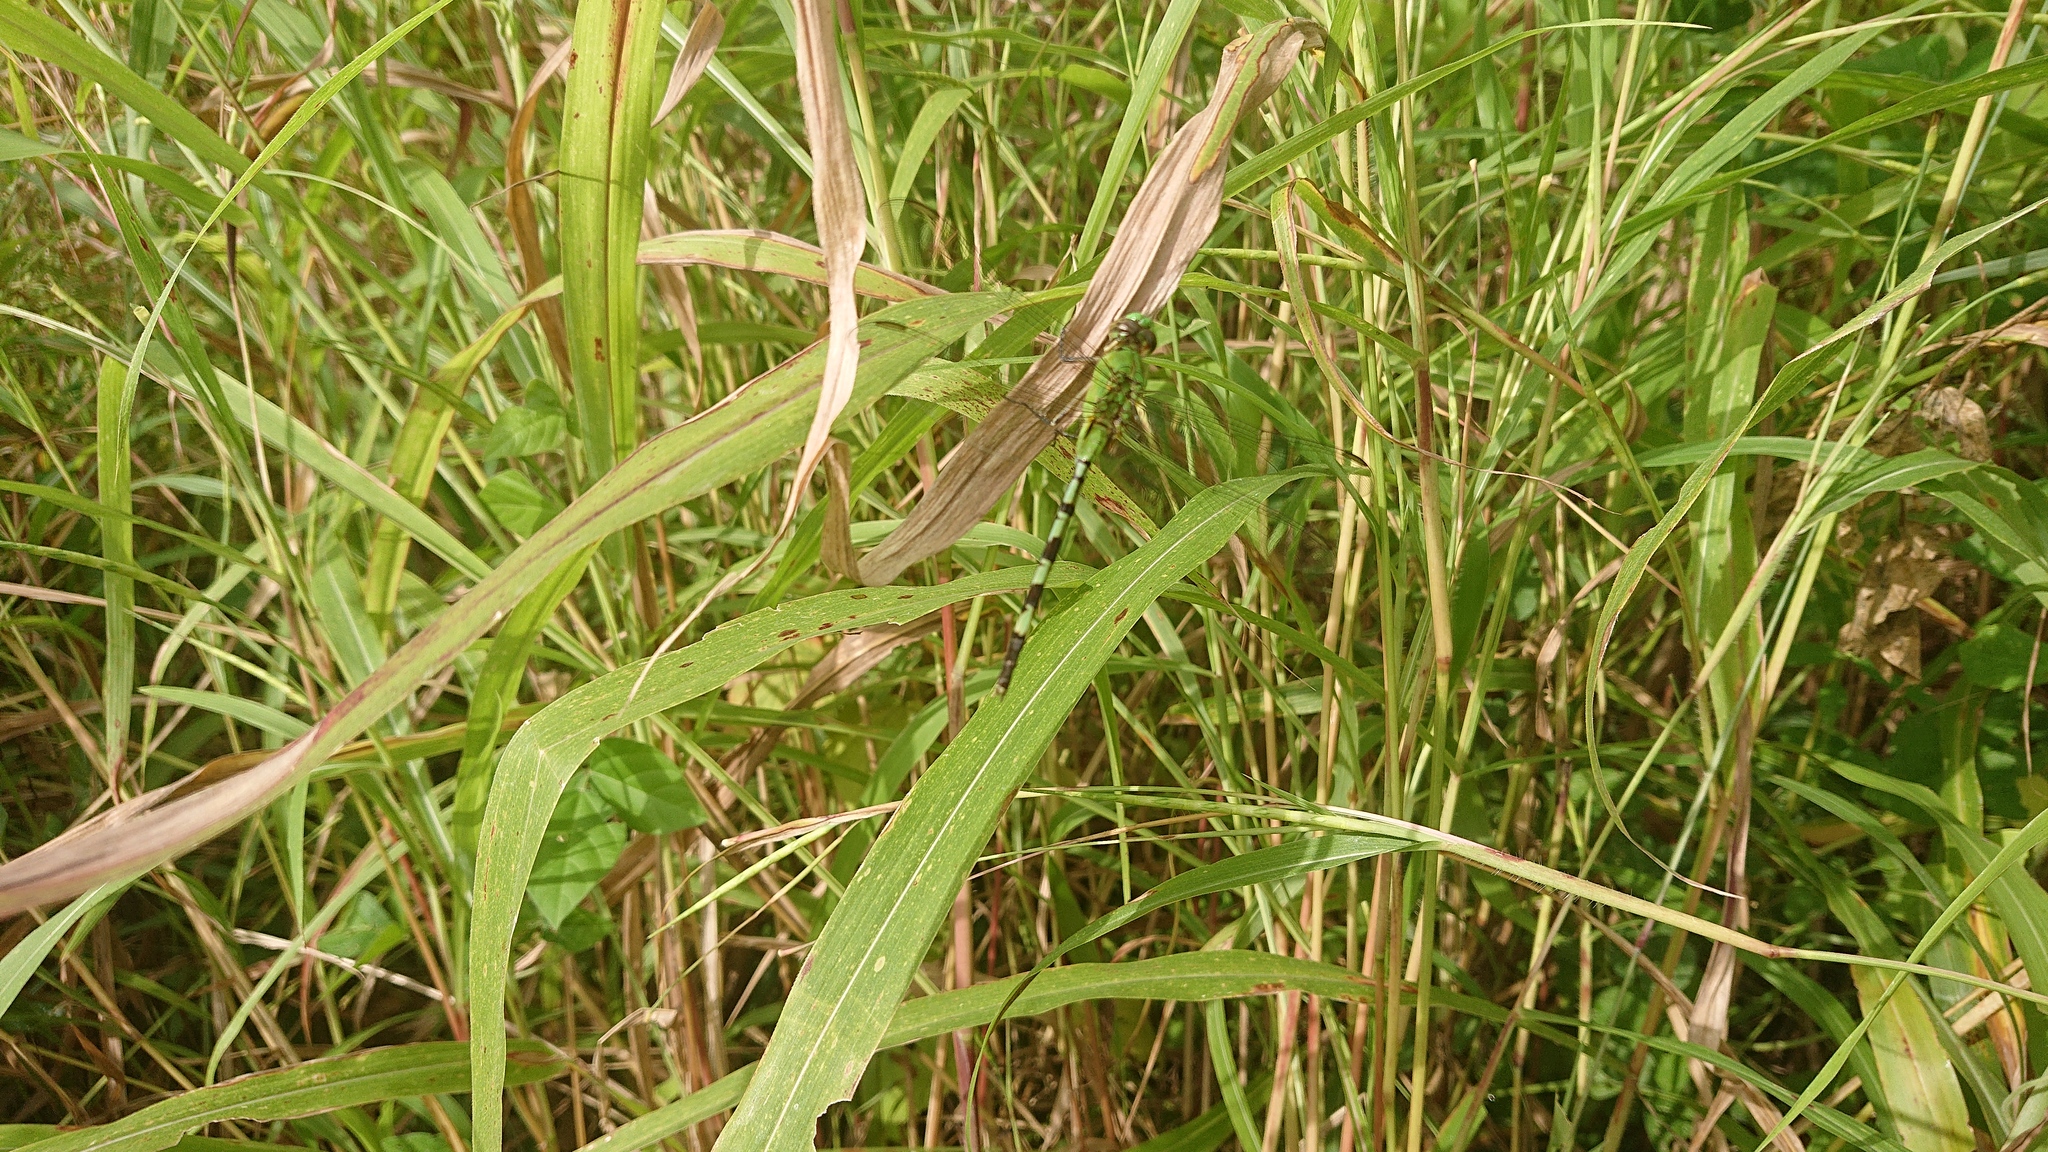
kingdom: Animalia
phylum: Arthropoda
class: Insecta
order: Odonata
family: Libellulidae
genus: Erythemis
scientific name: Erythemis vesiculosa
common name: Great pondhawk
